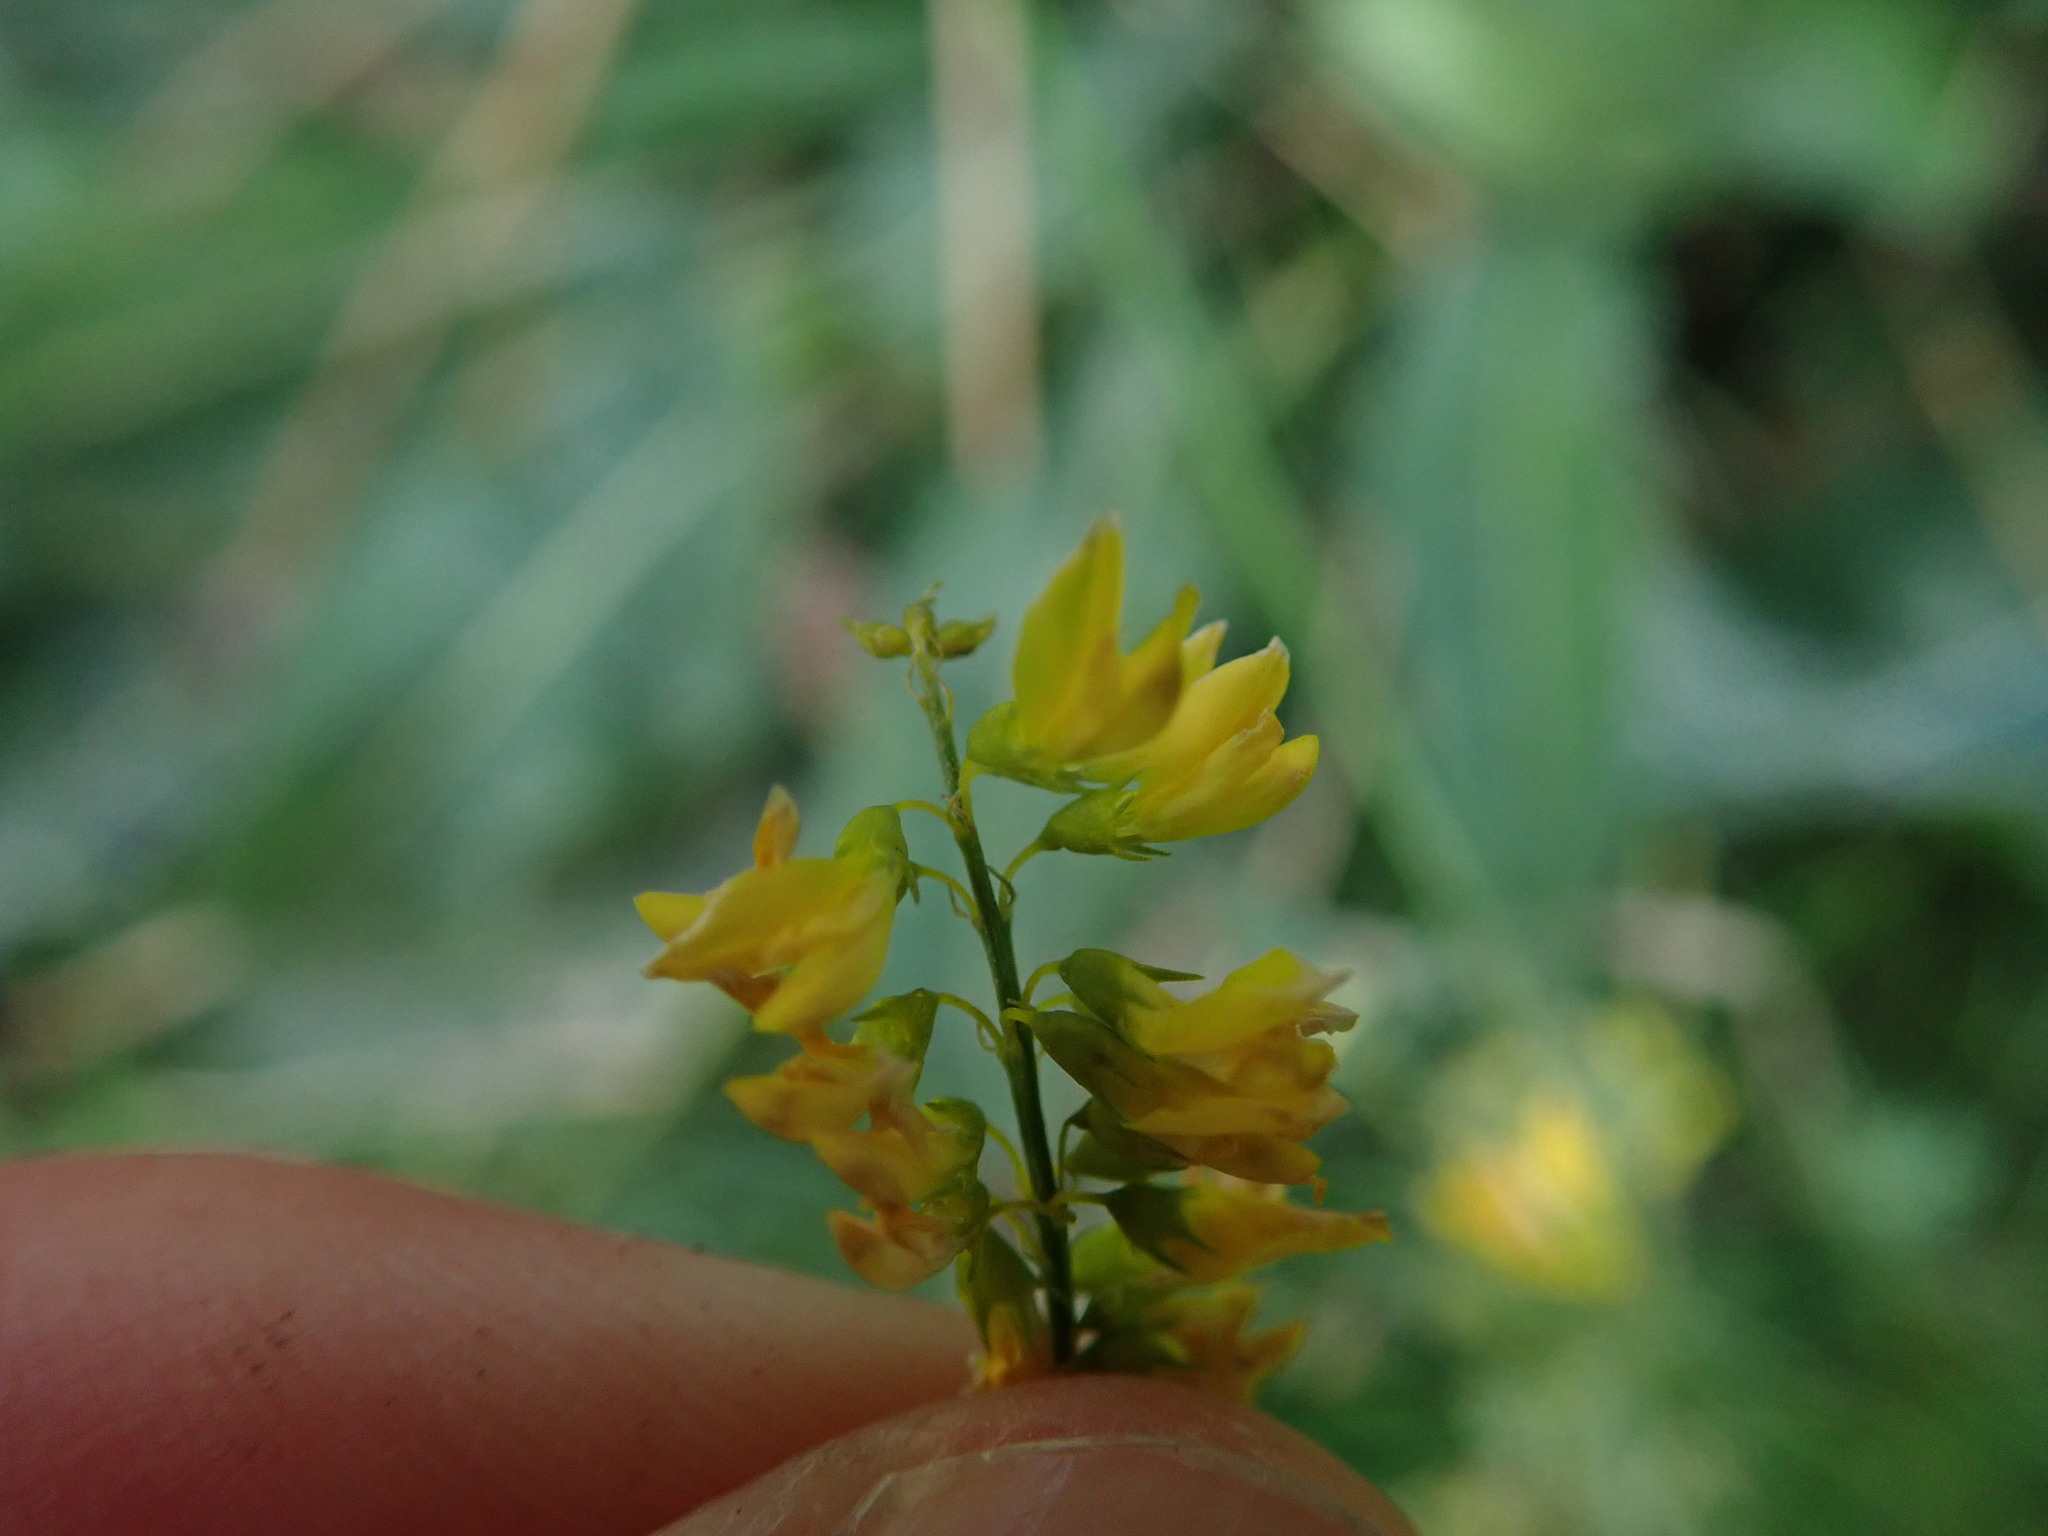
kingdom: Plantae
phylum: Tracheophyta
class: Magnoliopsida
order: Fabales
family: Fabaceae
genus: Melilotus
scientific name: Melilotus officinalis
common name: Sweetclover
